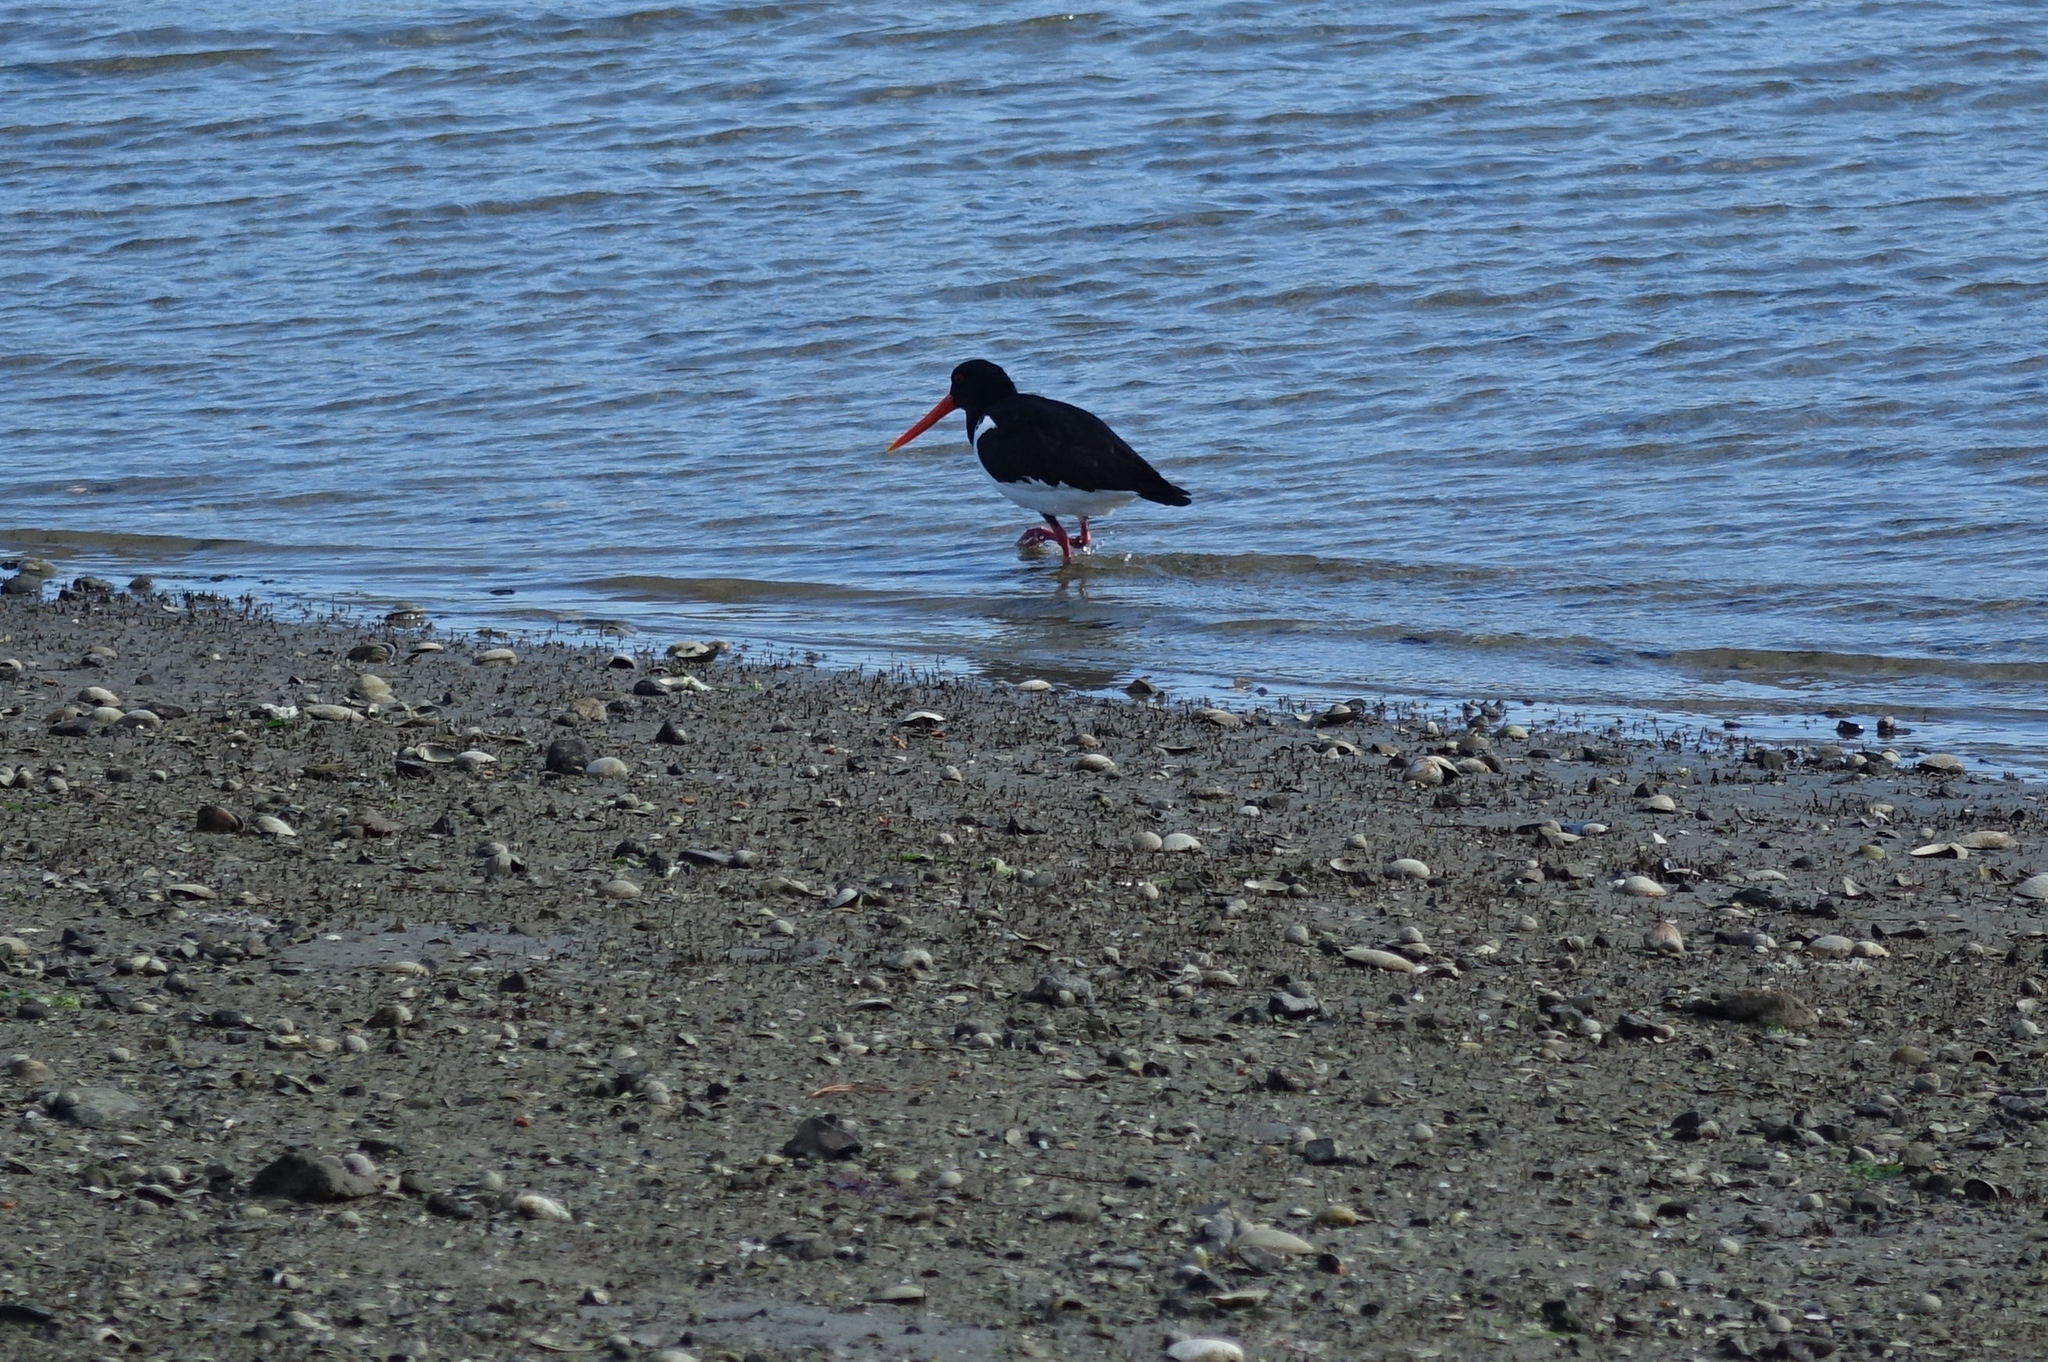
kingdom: Animalia
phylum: Chordata
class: Aves
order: Charadriiformes
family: Haematopodidae
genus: Haematopus
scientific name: Haematopus finschi
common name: South island oystercatcher
